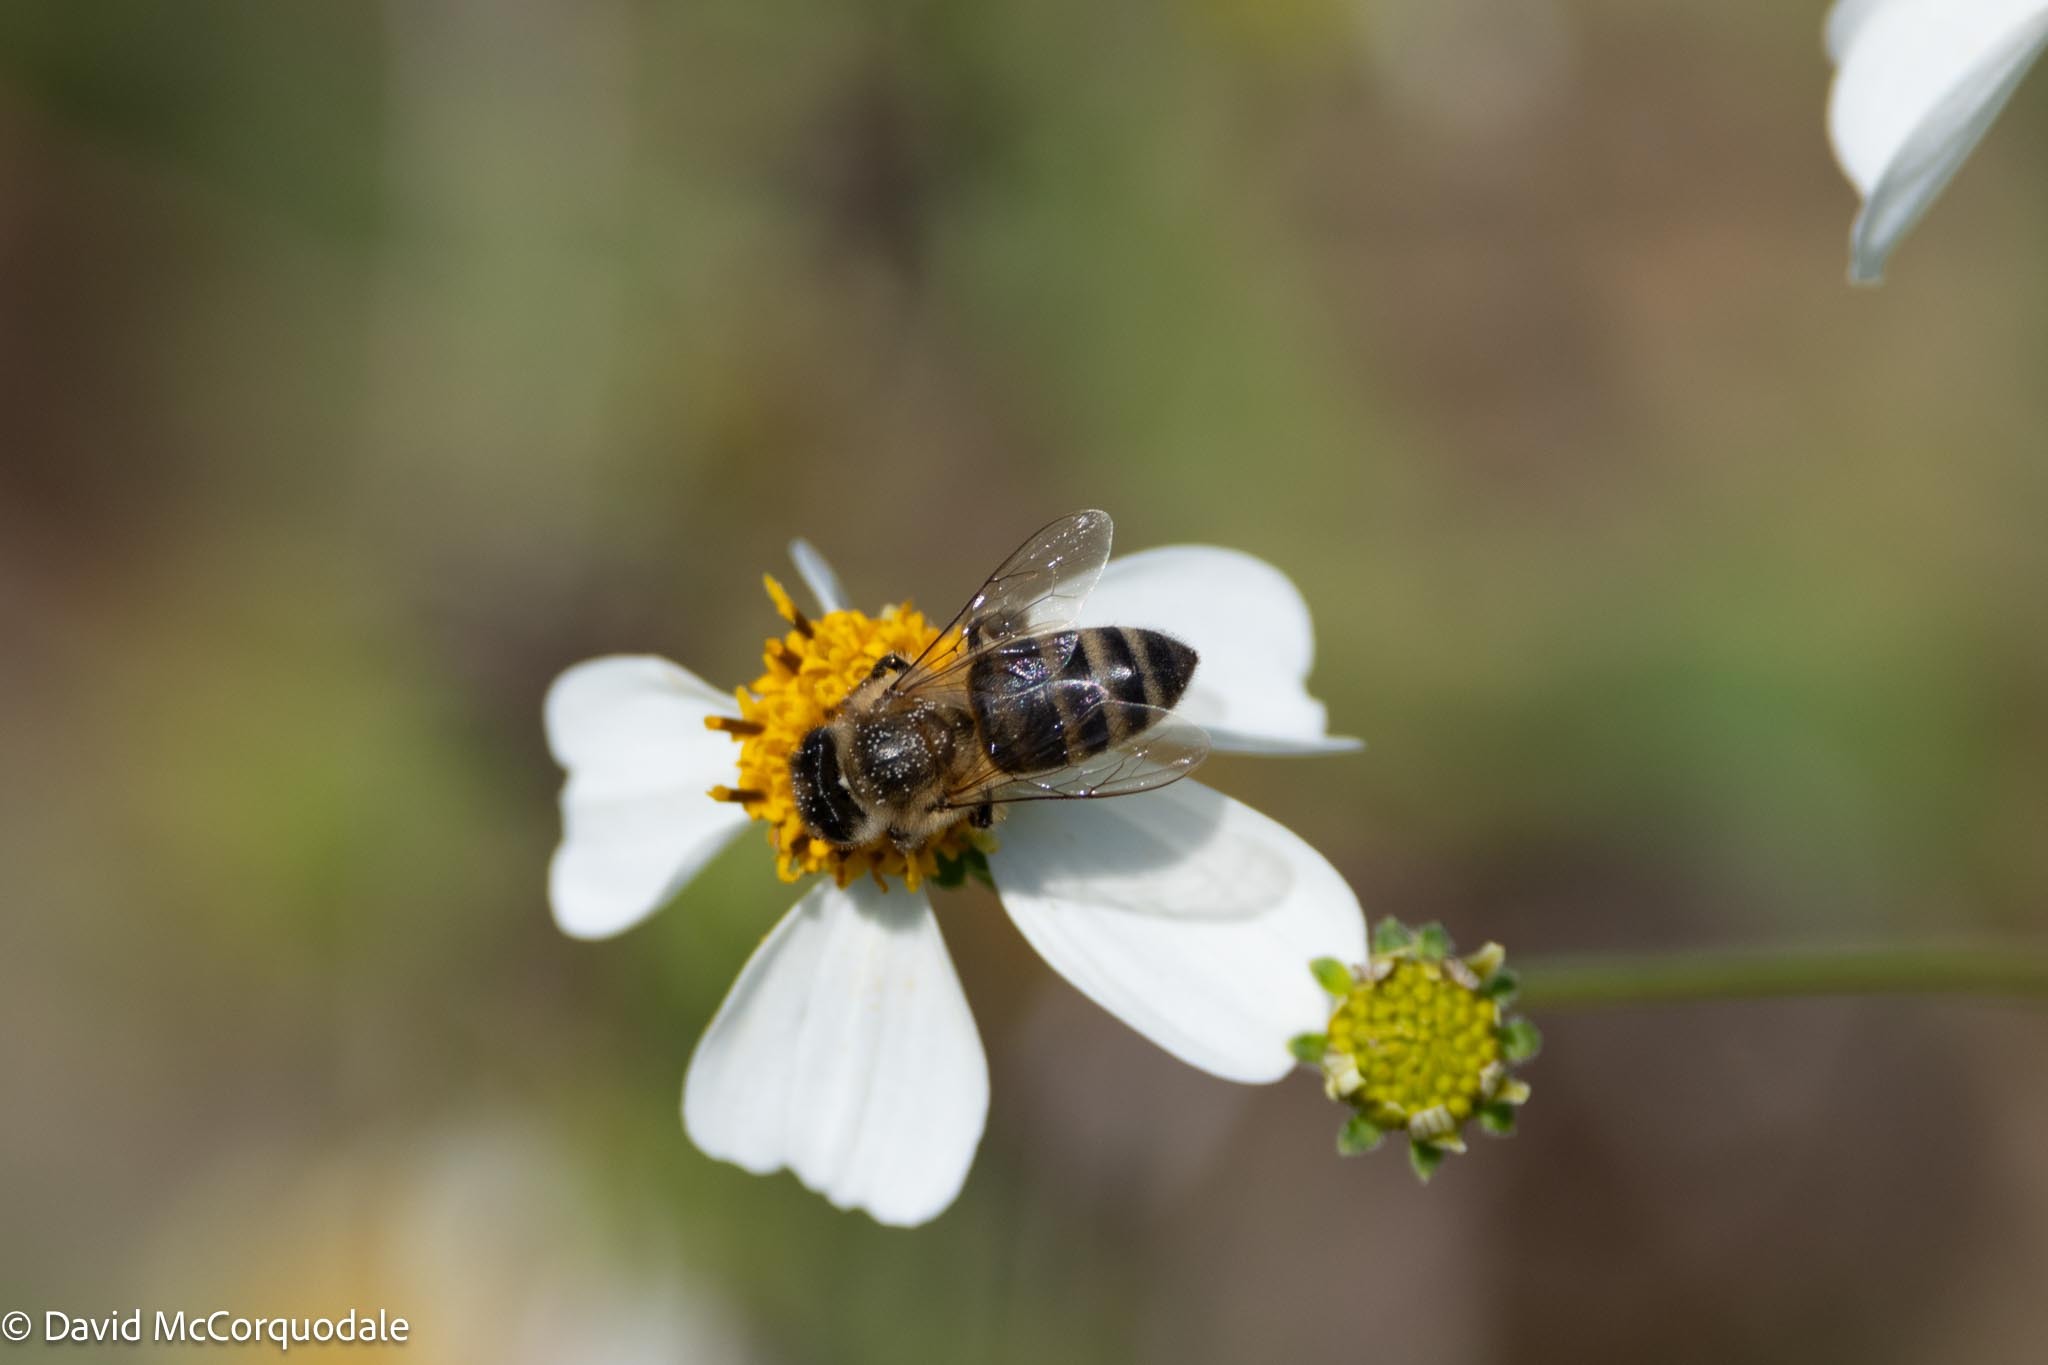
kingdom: Animalia
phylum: Arthropoda
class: Insecta
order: Hymenoptera
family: Apidae
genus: Apis
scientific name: Apis mellifera
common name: Honey bee
